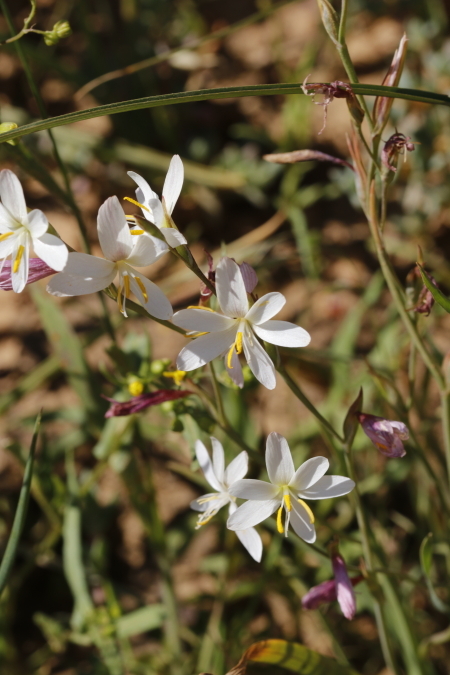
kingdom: Plantae
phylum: Tracheophyta
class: Liliopsida
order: Asparagales
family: Iridaceae
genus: Hesperantha
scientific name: Hesperantha bachmannii
